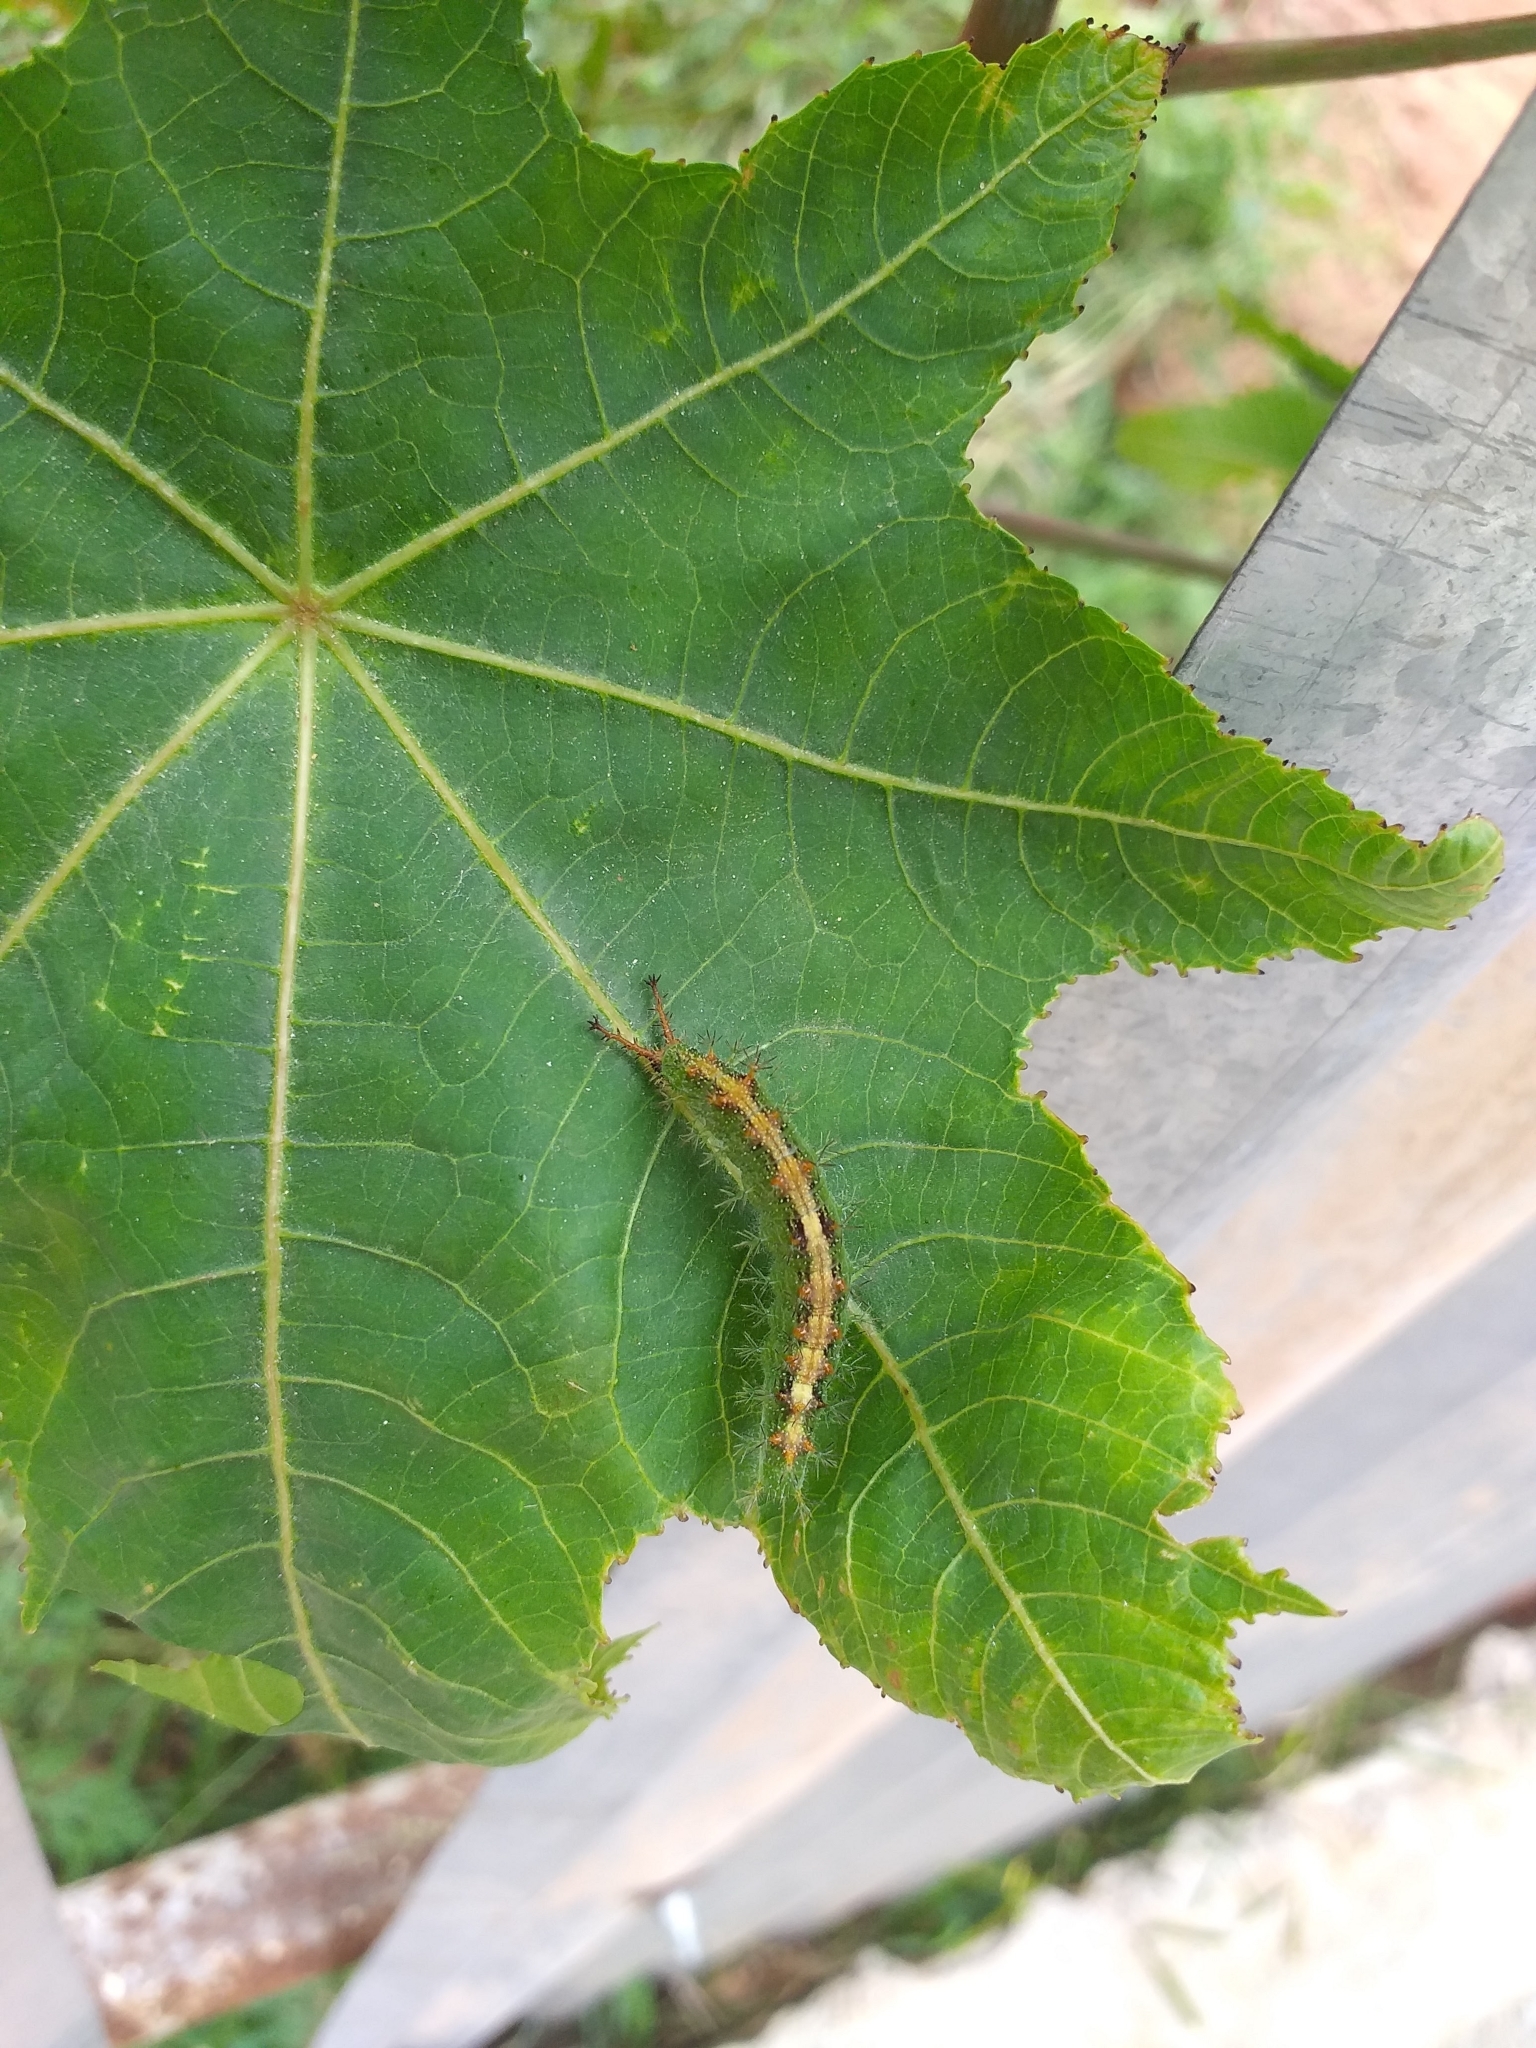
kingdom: Animalia
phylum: Arthropoda
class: Insecta
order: Lepidoptera
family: Nymphalidae
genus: Ariadne
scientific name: Ariadne merione
